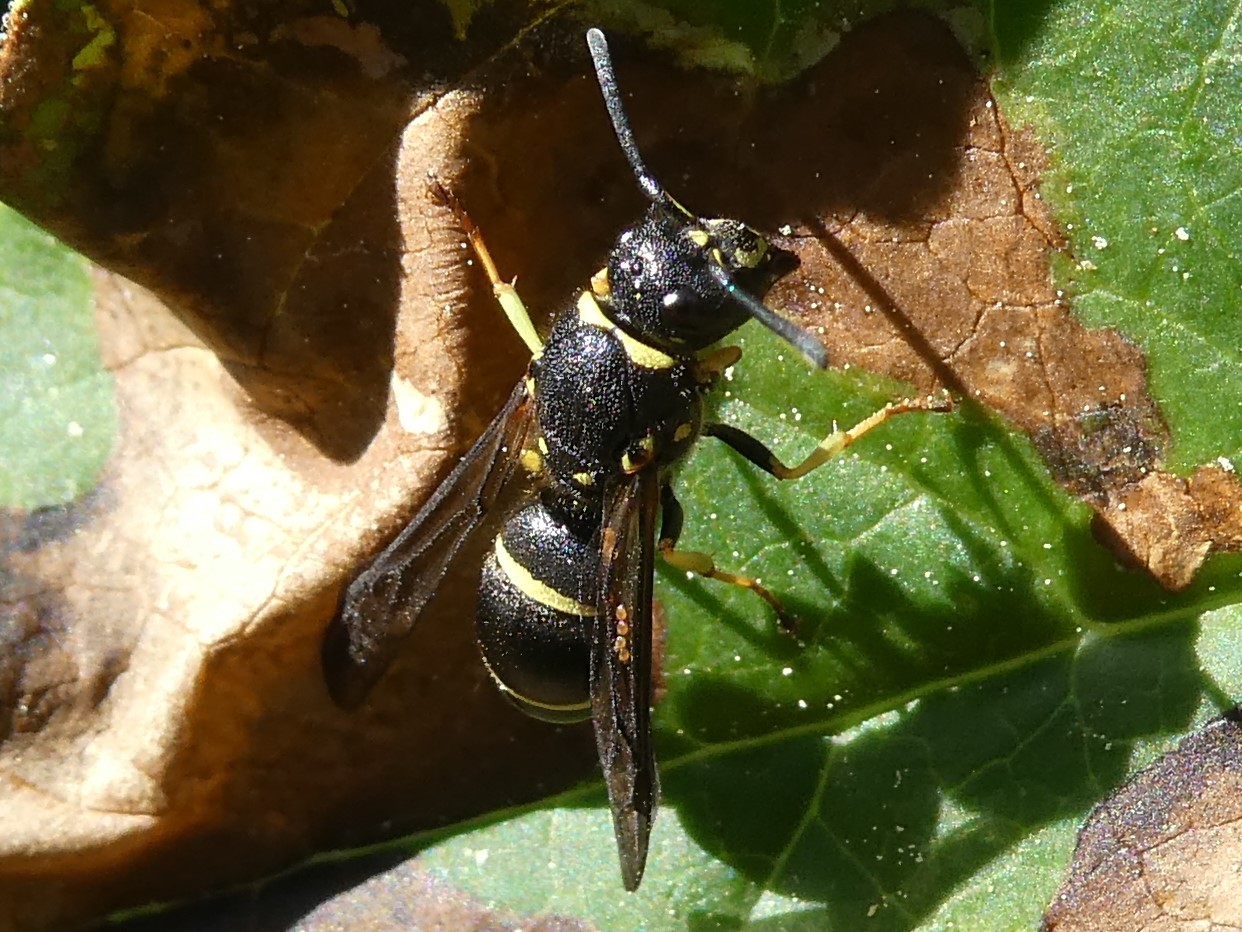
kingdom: Animalia
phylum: Arthropoda
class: Insecta
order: Hymenoptera
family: Vespidae
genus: Ancistrocerus
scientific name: Ancistrocerus
